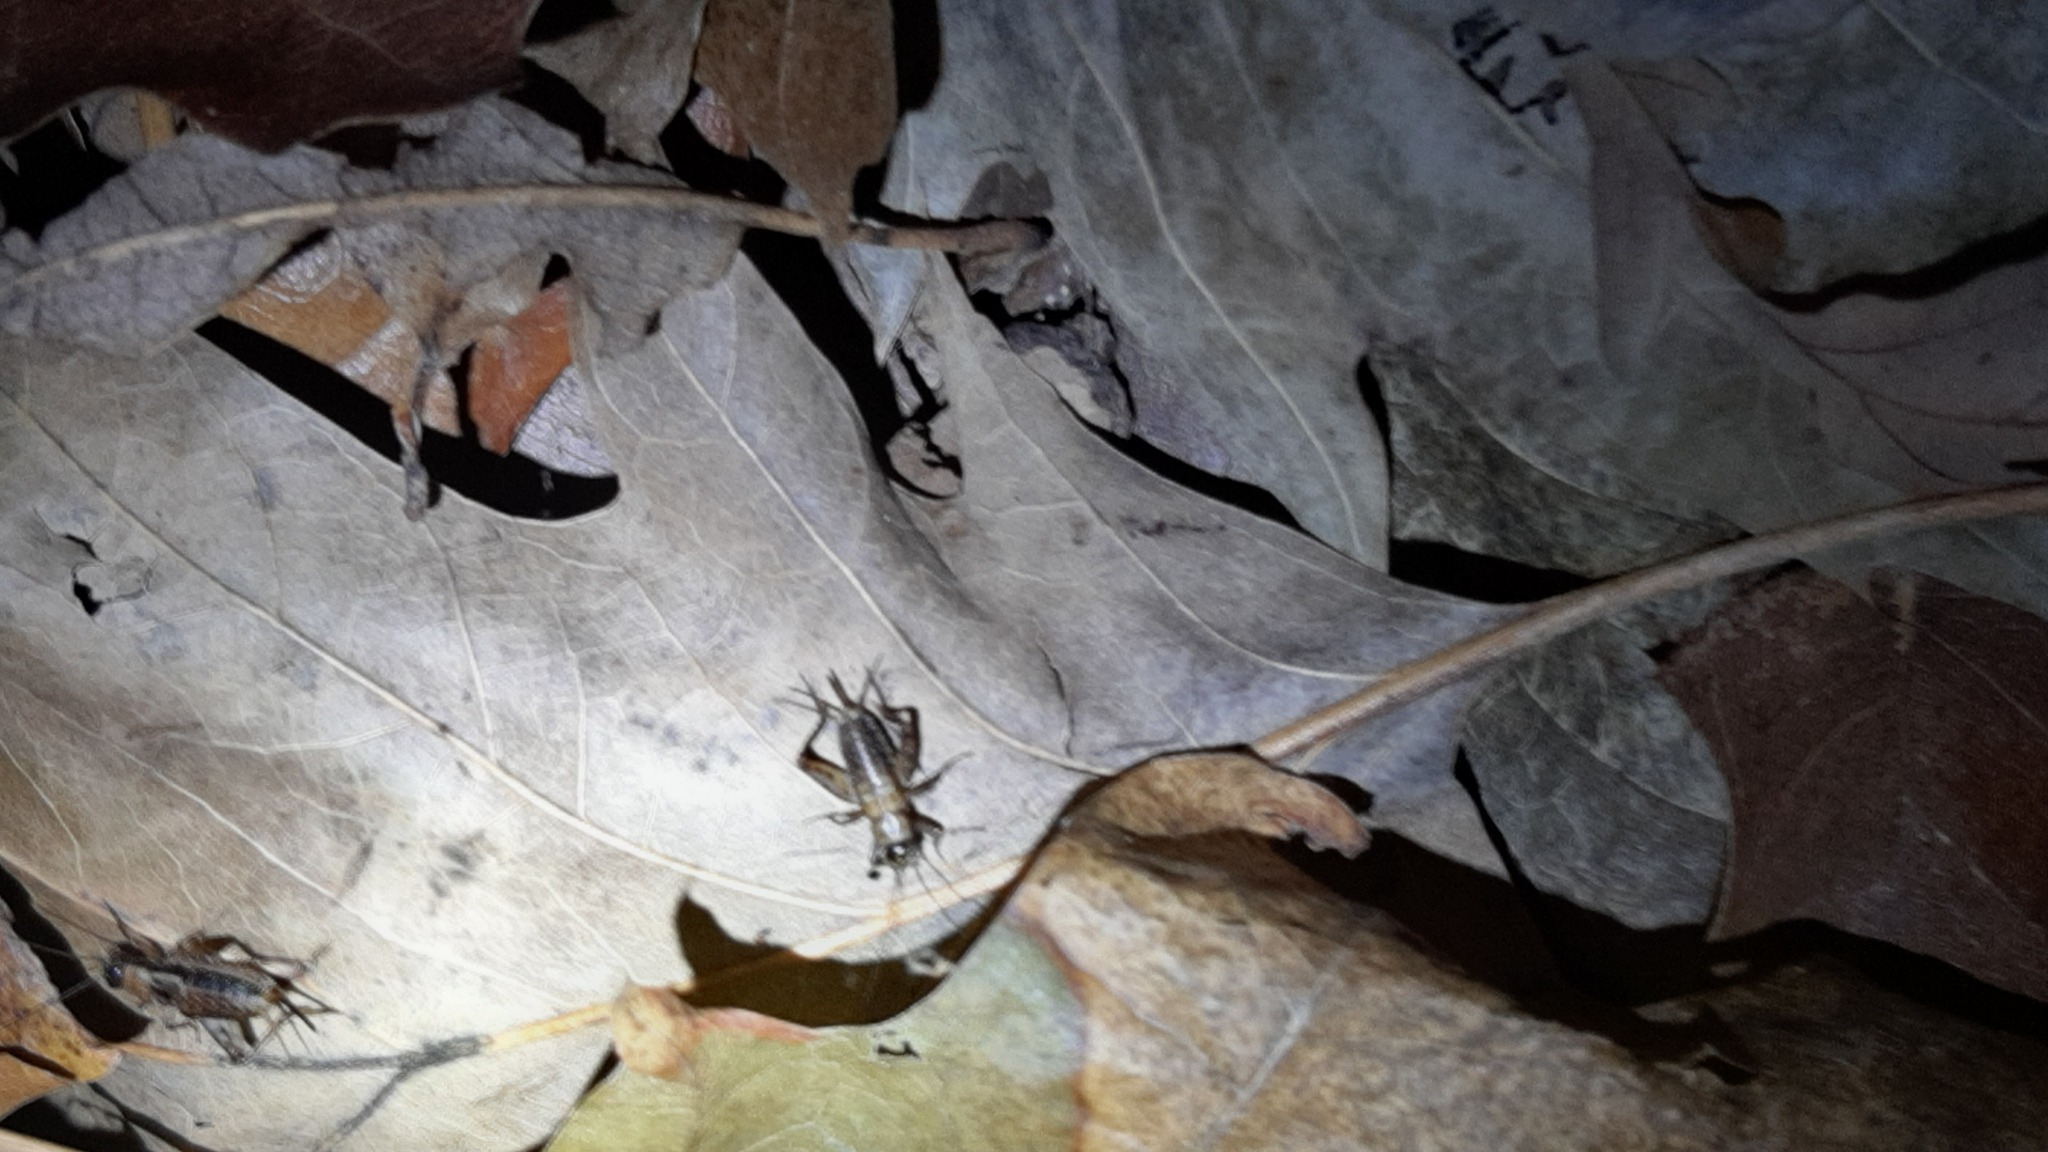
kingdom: Animalia
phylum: Arthropoda
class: Insecta
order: Orthoptera
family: Trigonidiidae
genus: Nemobius
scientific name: Nemobius sylvestris
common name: Wood-cricket
